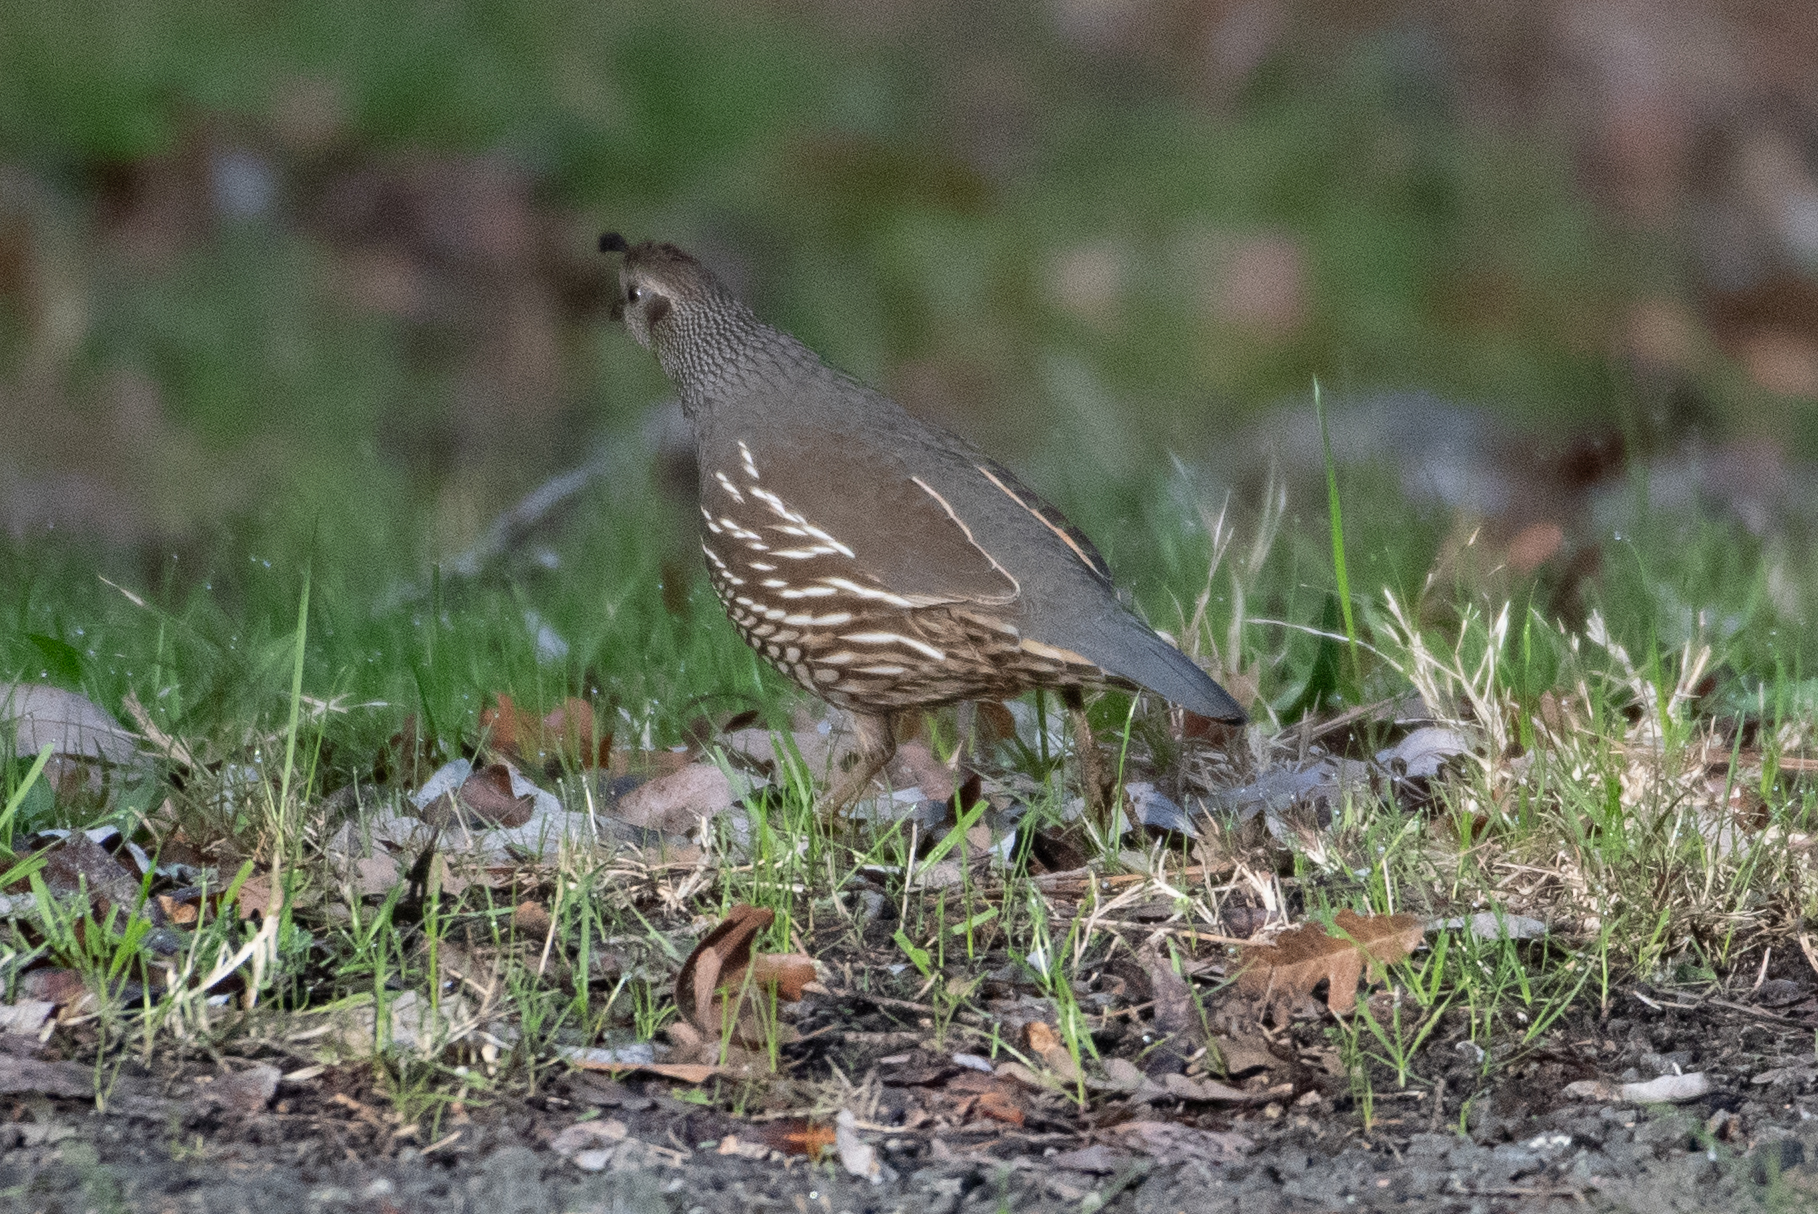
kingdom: Animalia
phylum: Chordata
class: Aves
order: Galliformes
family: Odontophoridae
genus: Callipepla
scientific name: Callipepla californica
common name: California quail
